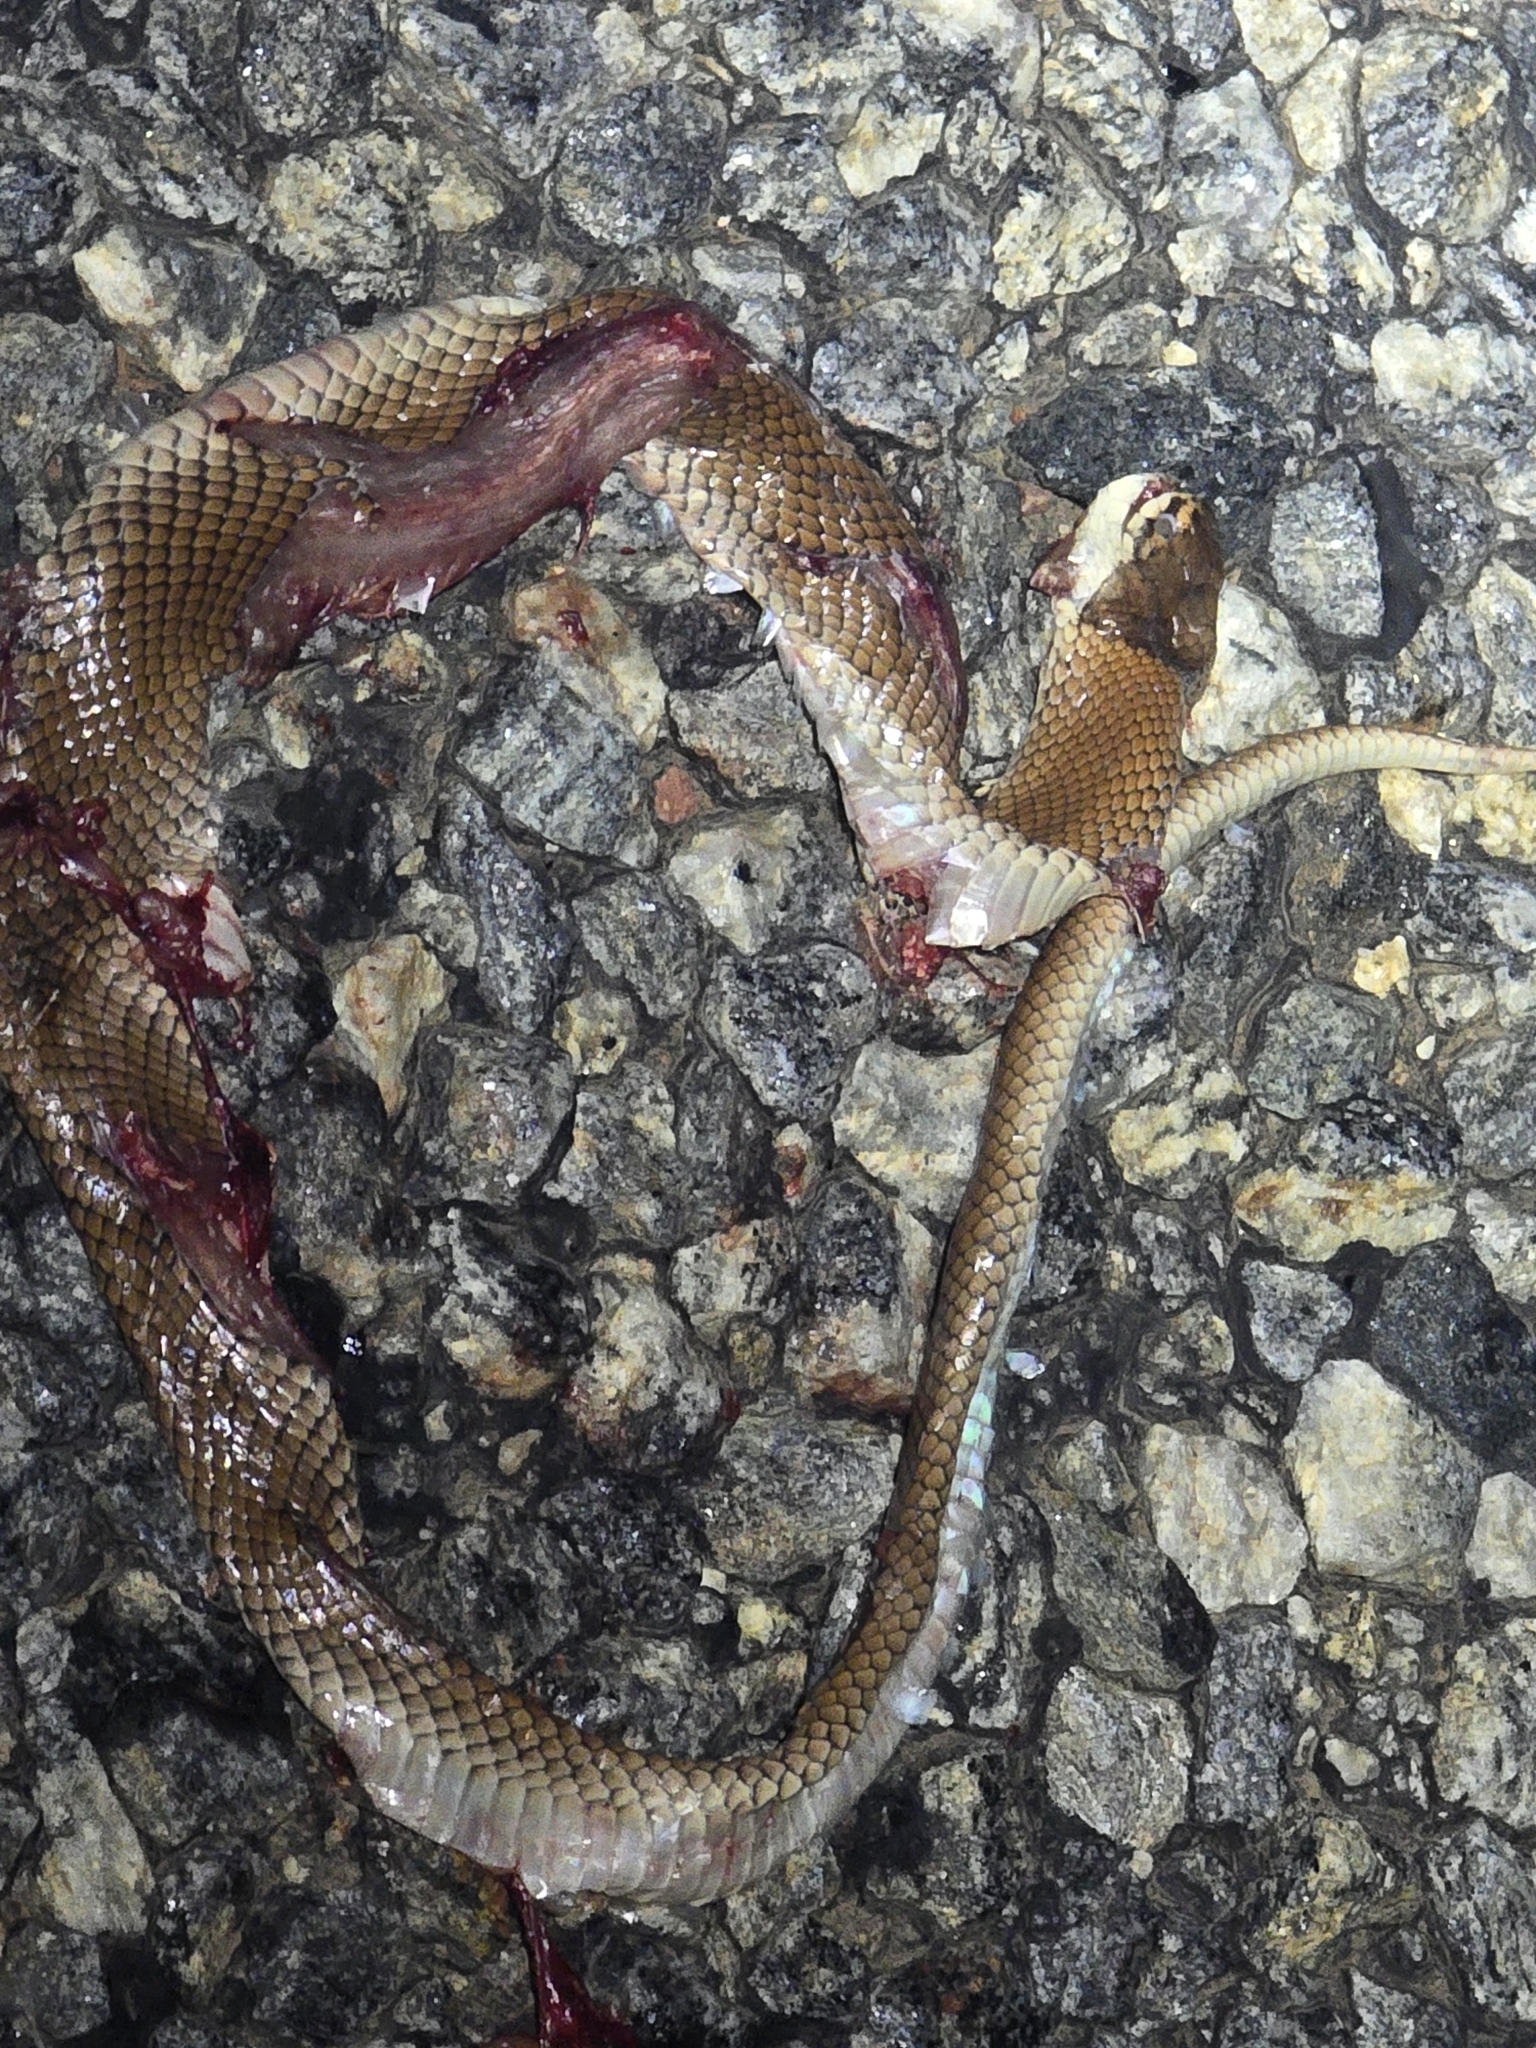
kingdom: Animalia
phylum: Chordata
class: Squamata
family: Elapidae
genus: Suta
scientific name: Suta suta
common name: Curl snake
